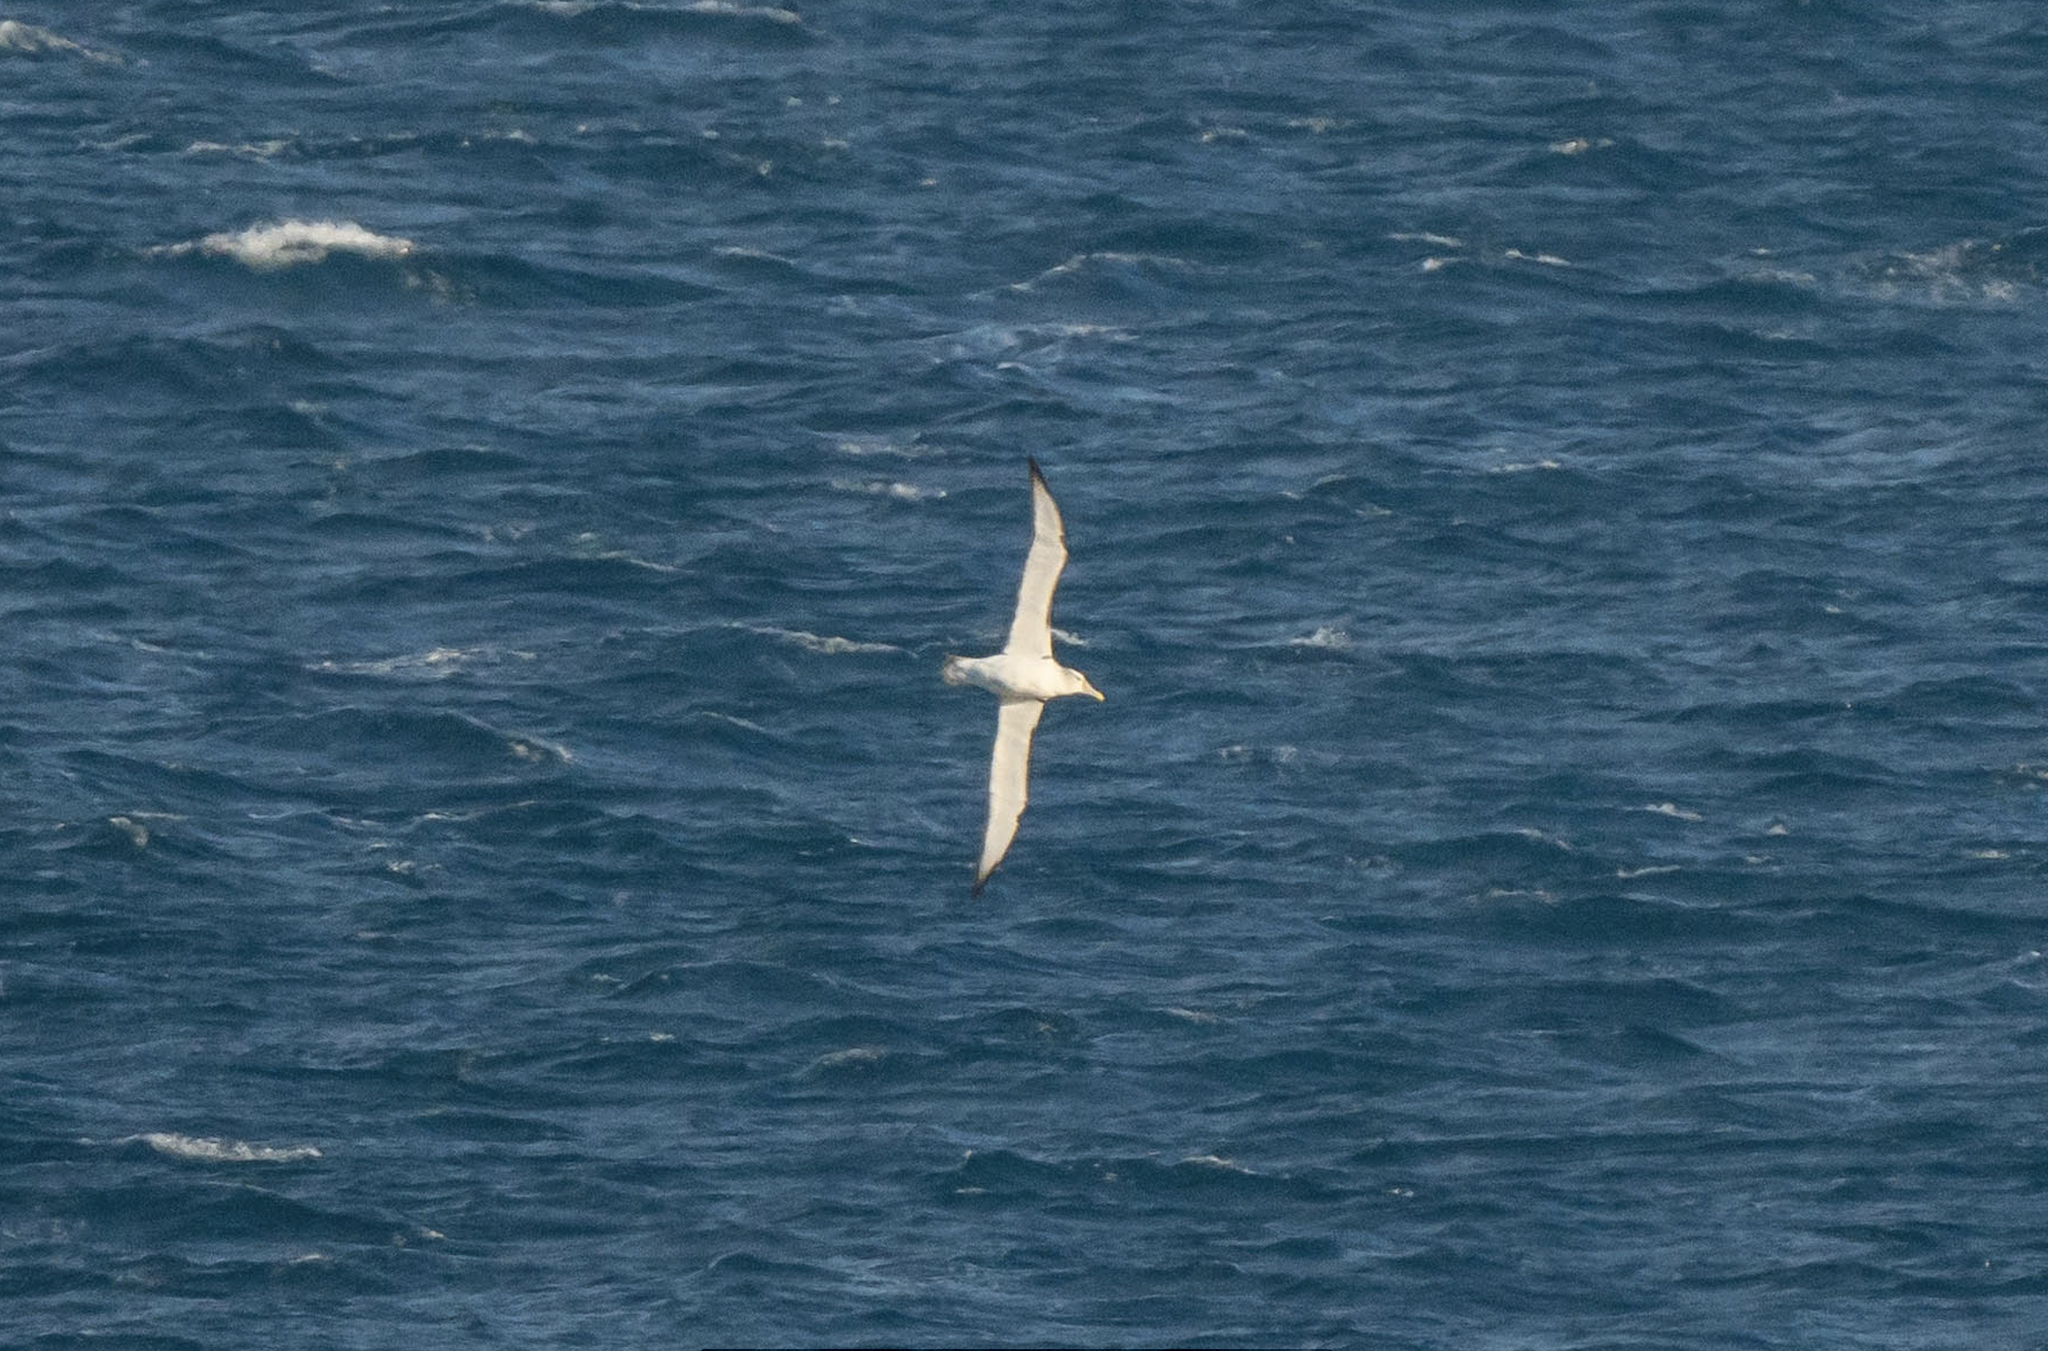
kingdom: Animalia
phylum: Chordata
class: Aves
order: Procellariiformes
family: Diomedeidae
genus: Thalassarche
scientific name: Thalassarche cauta
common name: Shy albatross
